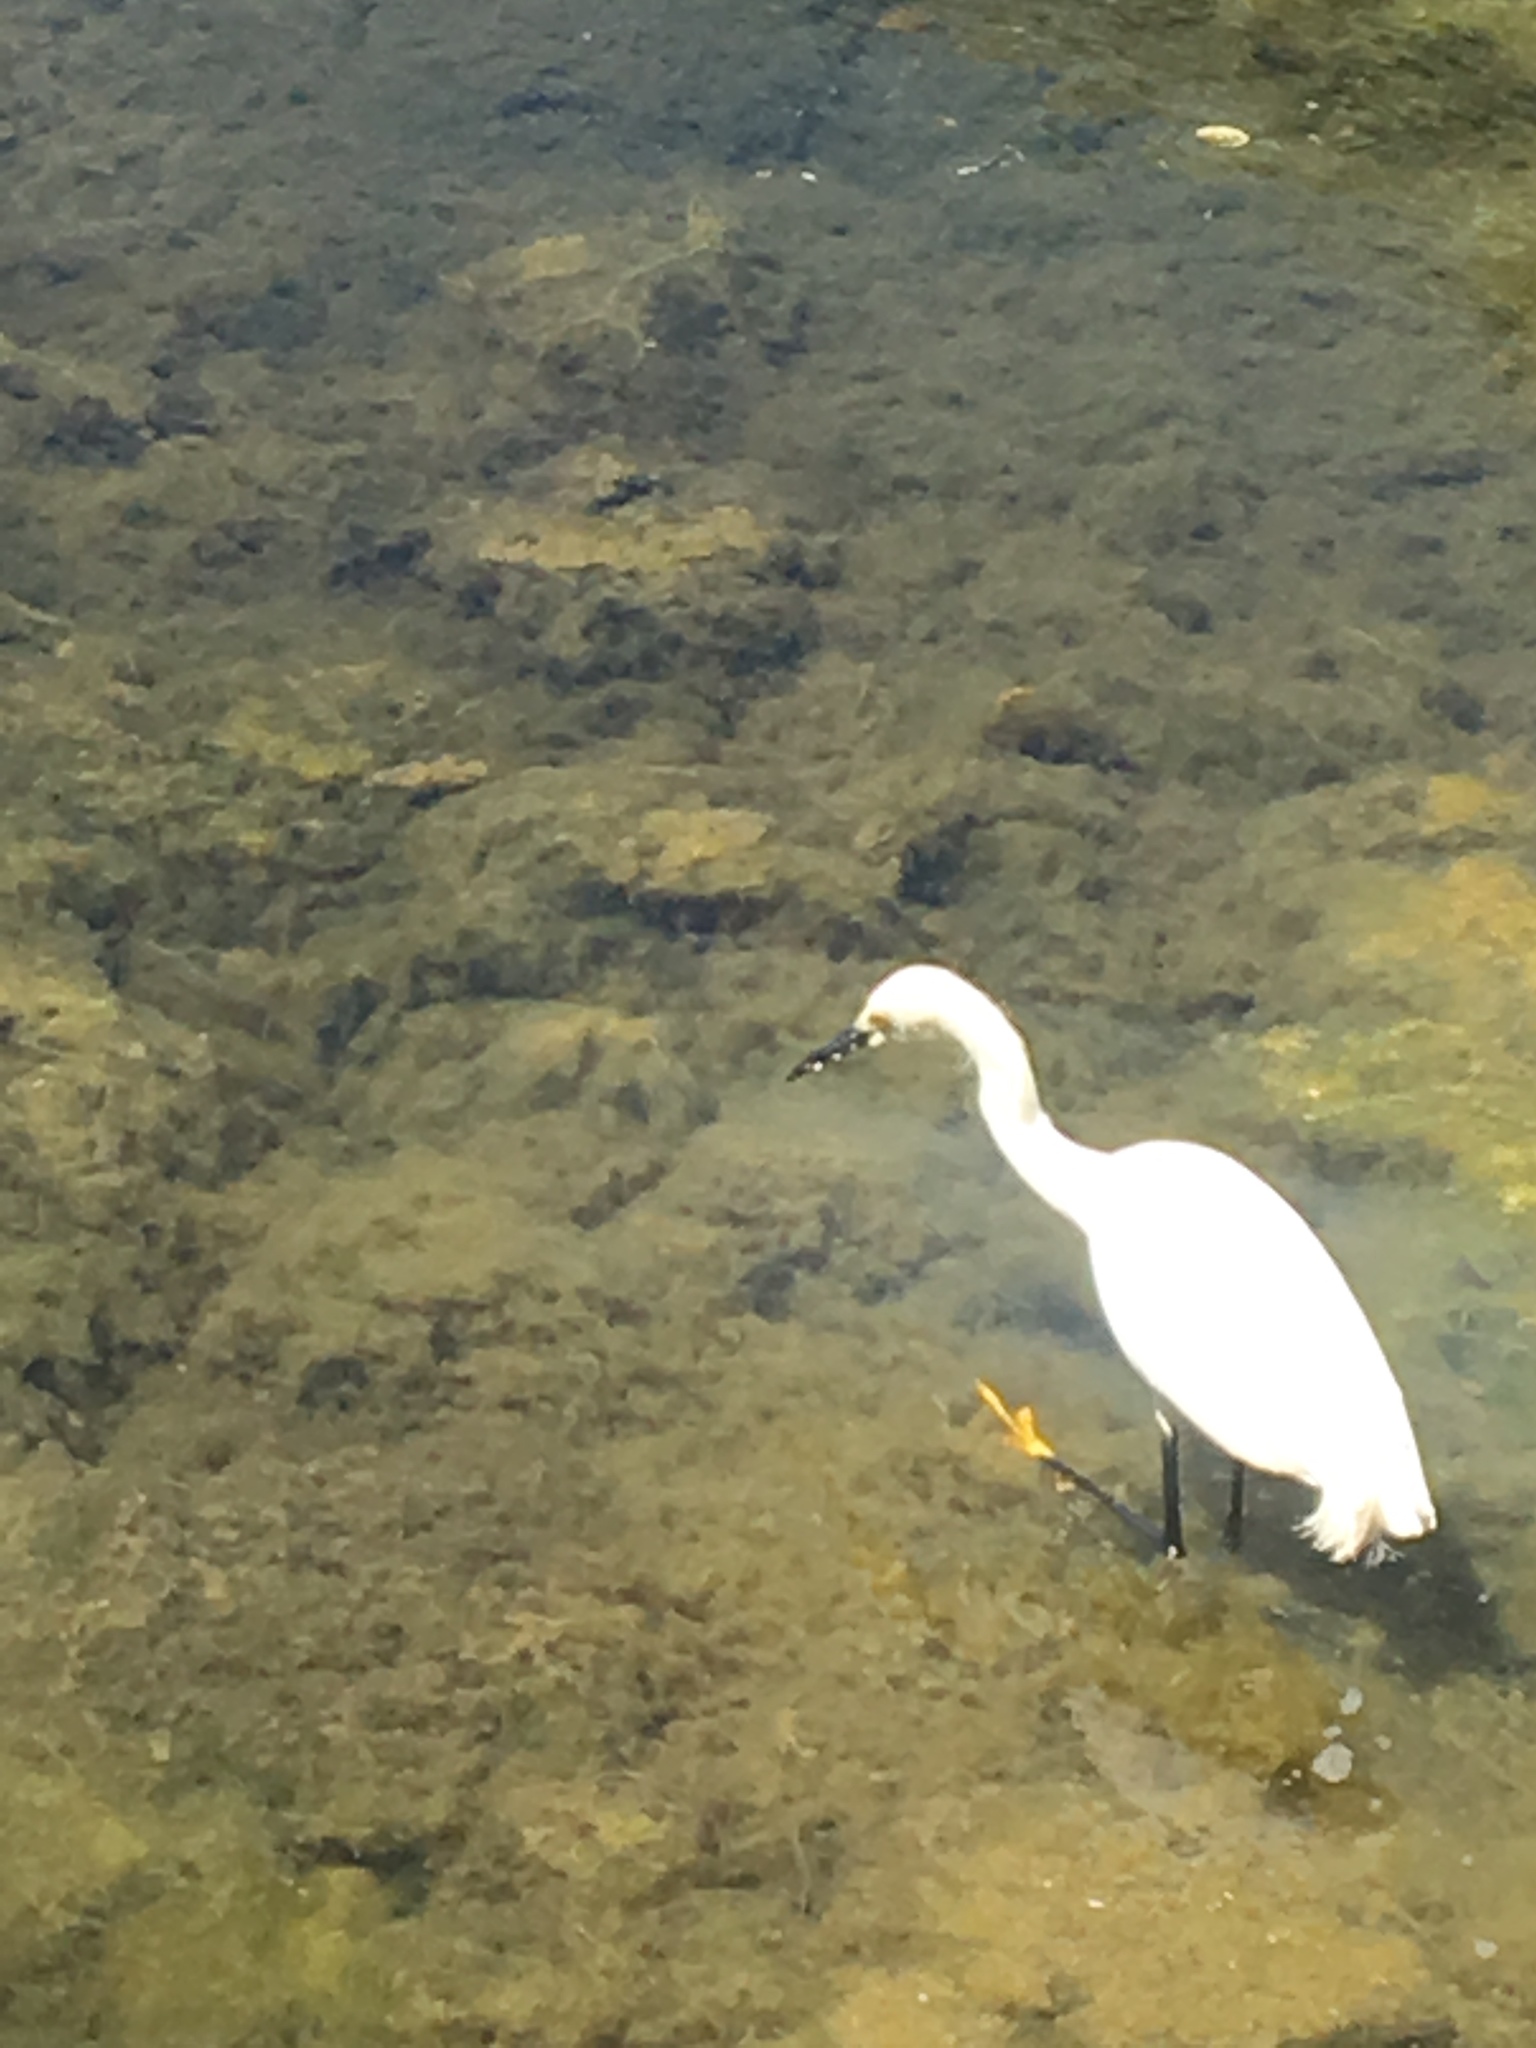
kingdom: Animalia
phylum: Chordata
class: Aves
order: Pelecaniformes
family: Ardeidae
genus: Egretta
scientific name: Egretta thula
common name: Snowy egret
